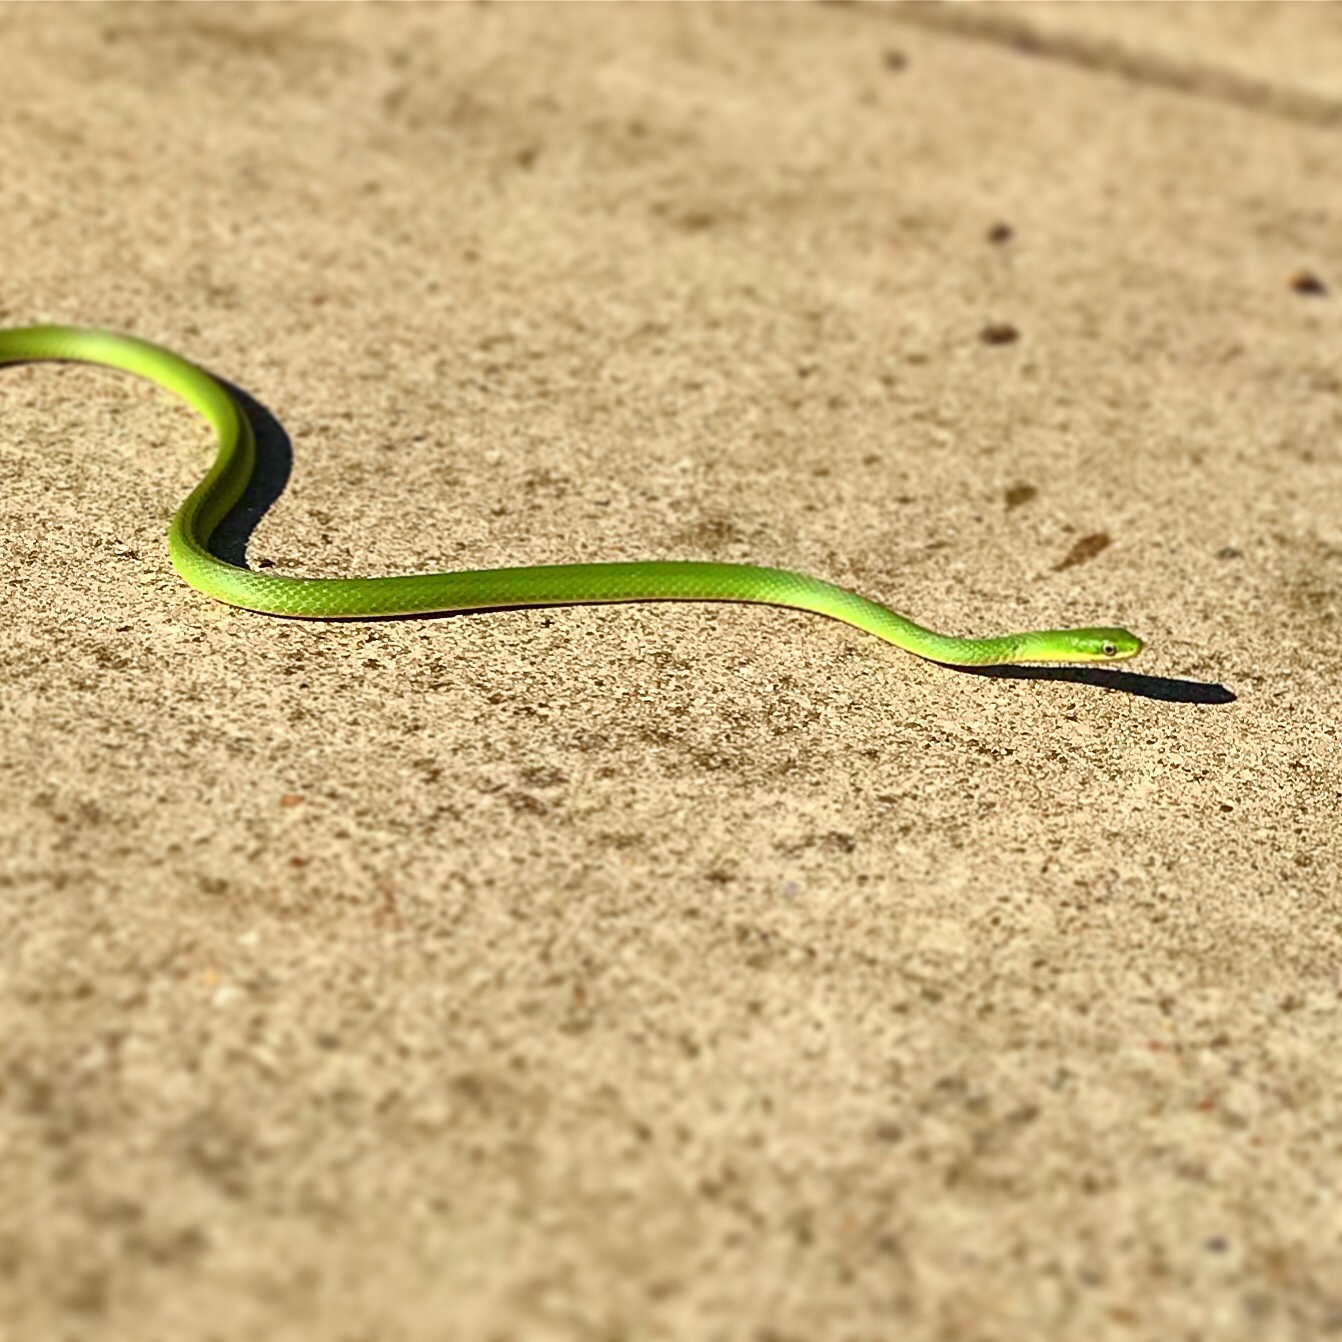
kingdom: Animalia
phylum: Chordata
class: Squamata
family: Colubridae
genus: Opheodrys
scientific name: Opheodrys aestivus
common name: Rough greensnake
